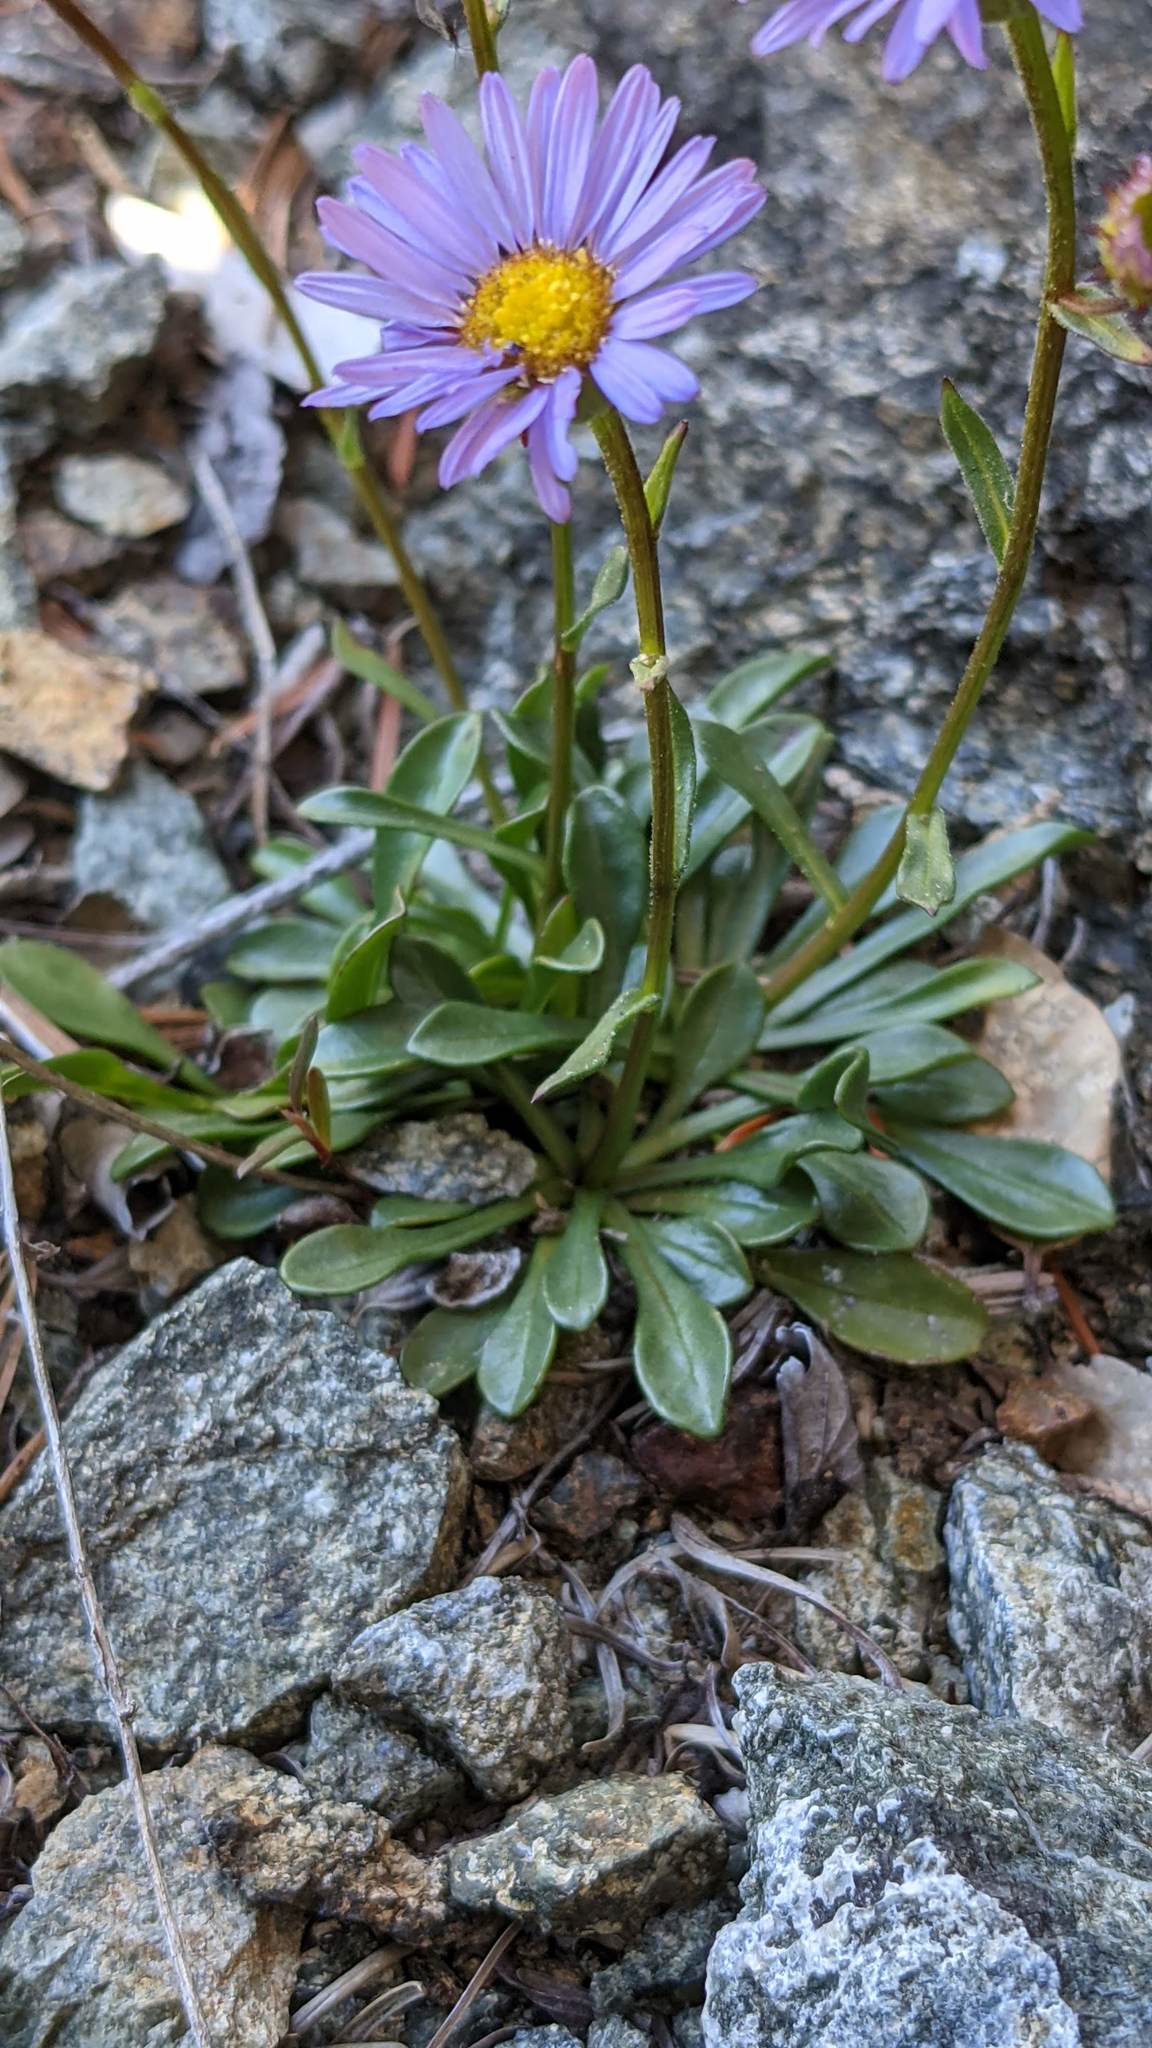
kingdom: Plantae
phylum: Tracheophyta
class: Magnoliopsida
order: Asterales
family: Asteraceae
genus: Erigeron
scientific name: Erigeron cervinus
